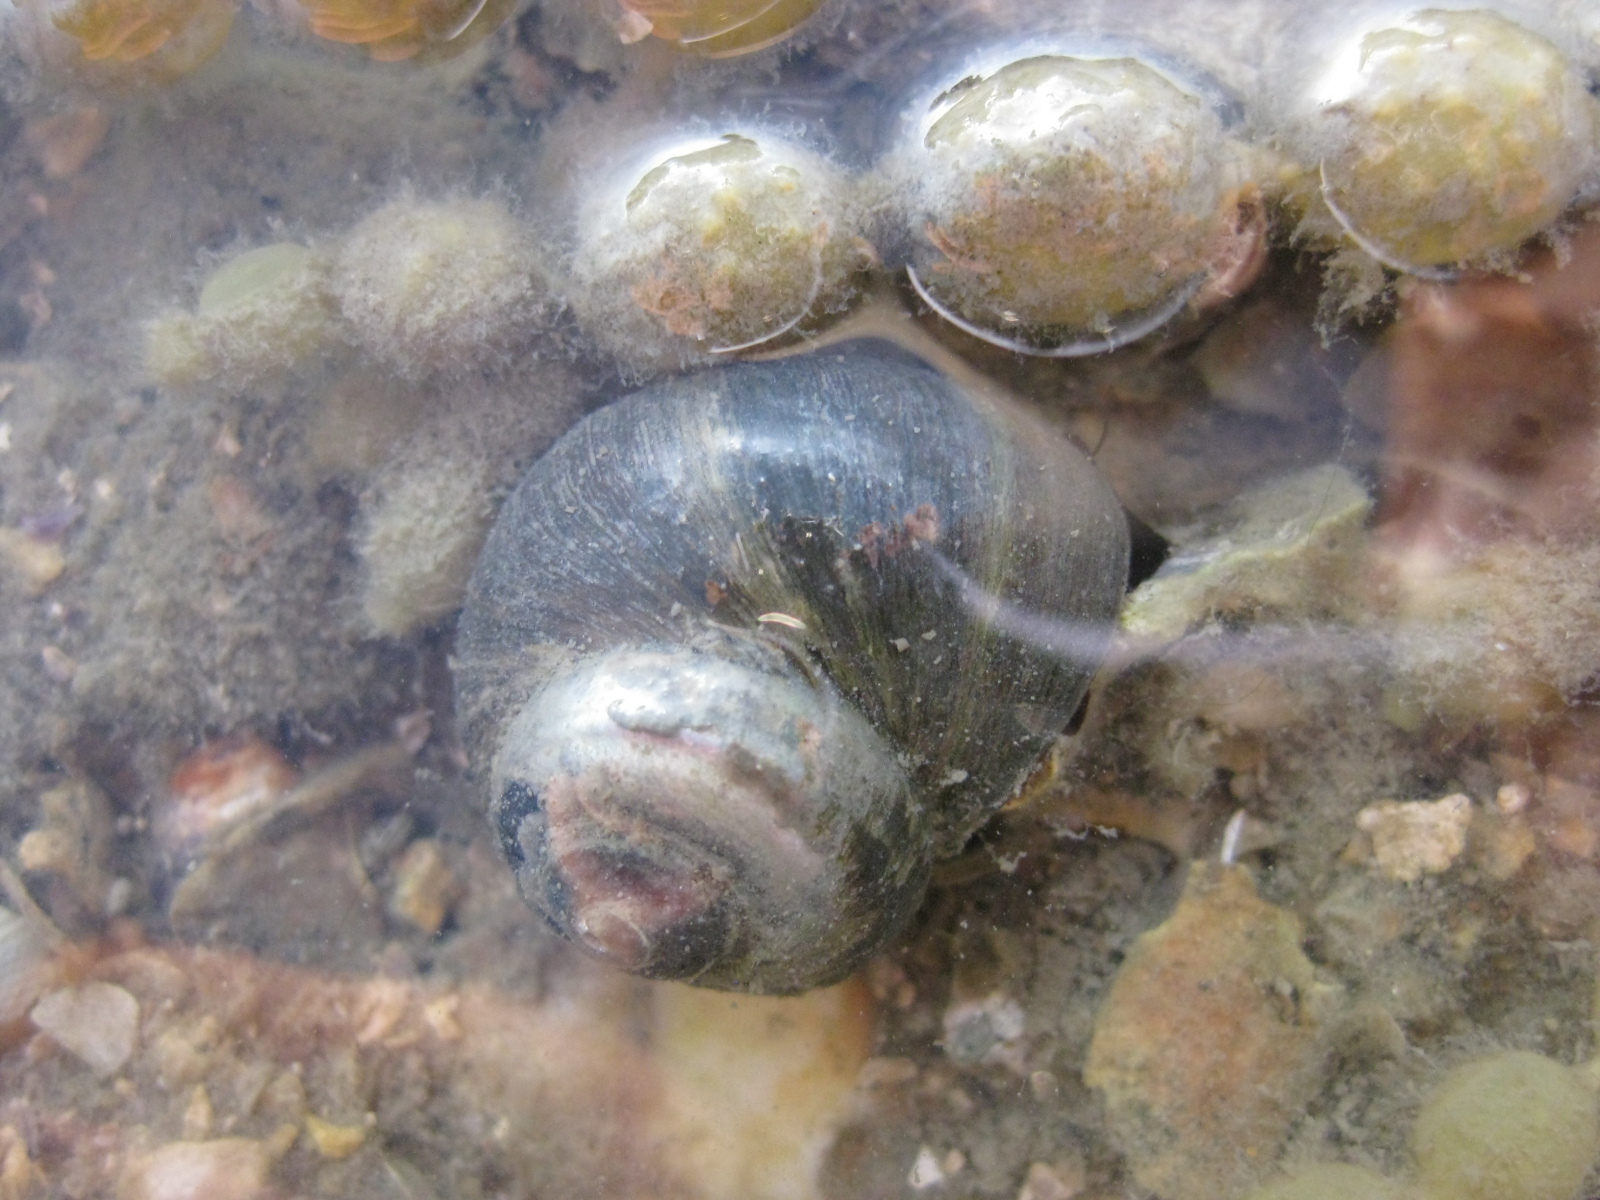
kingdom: Animalia
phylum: Mollusca
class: Gastropoda
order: Trochida
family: Turbinidae
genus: Lunella
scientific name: Lunella smaragda
